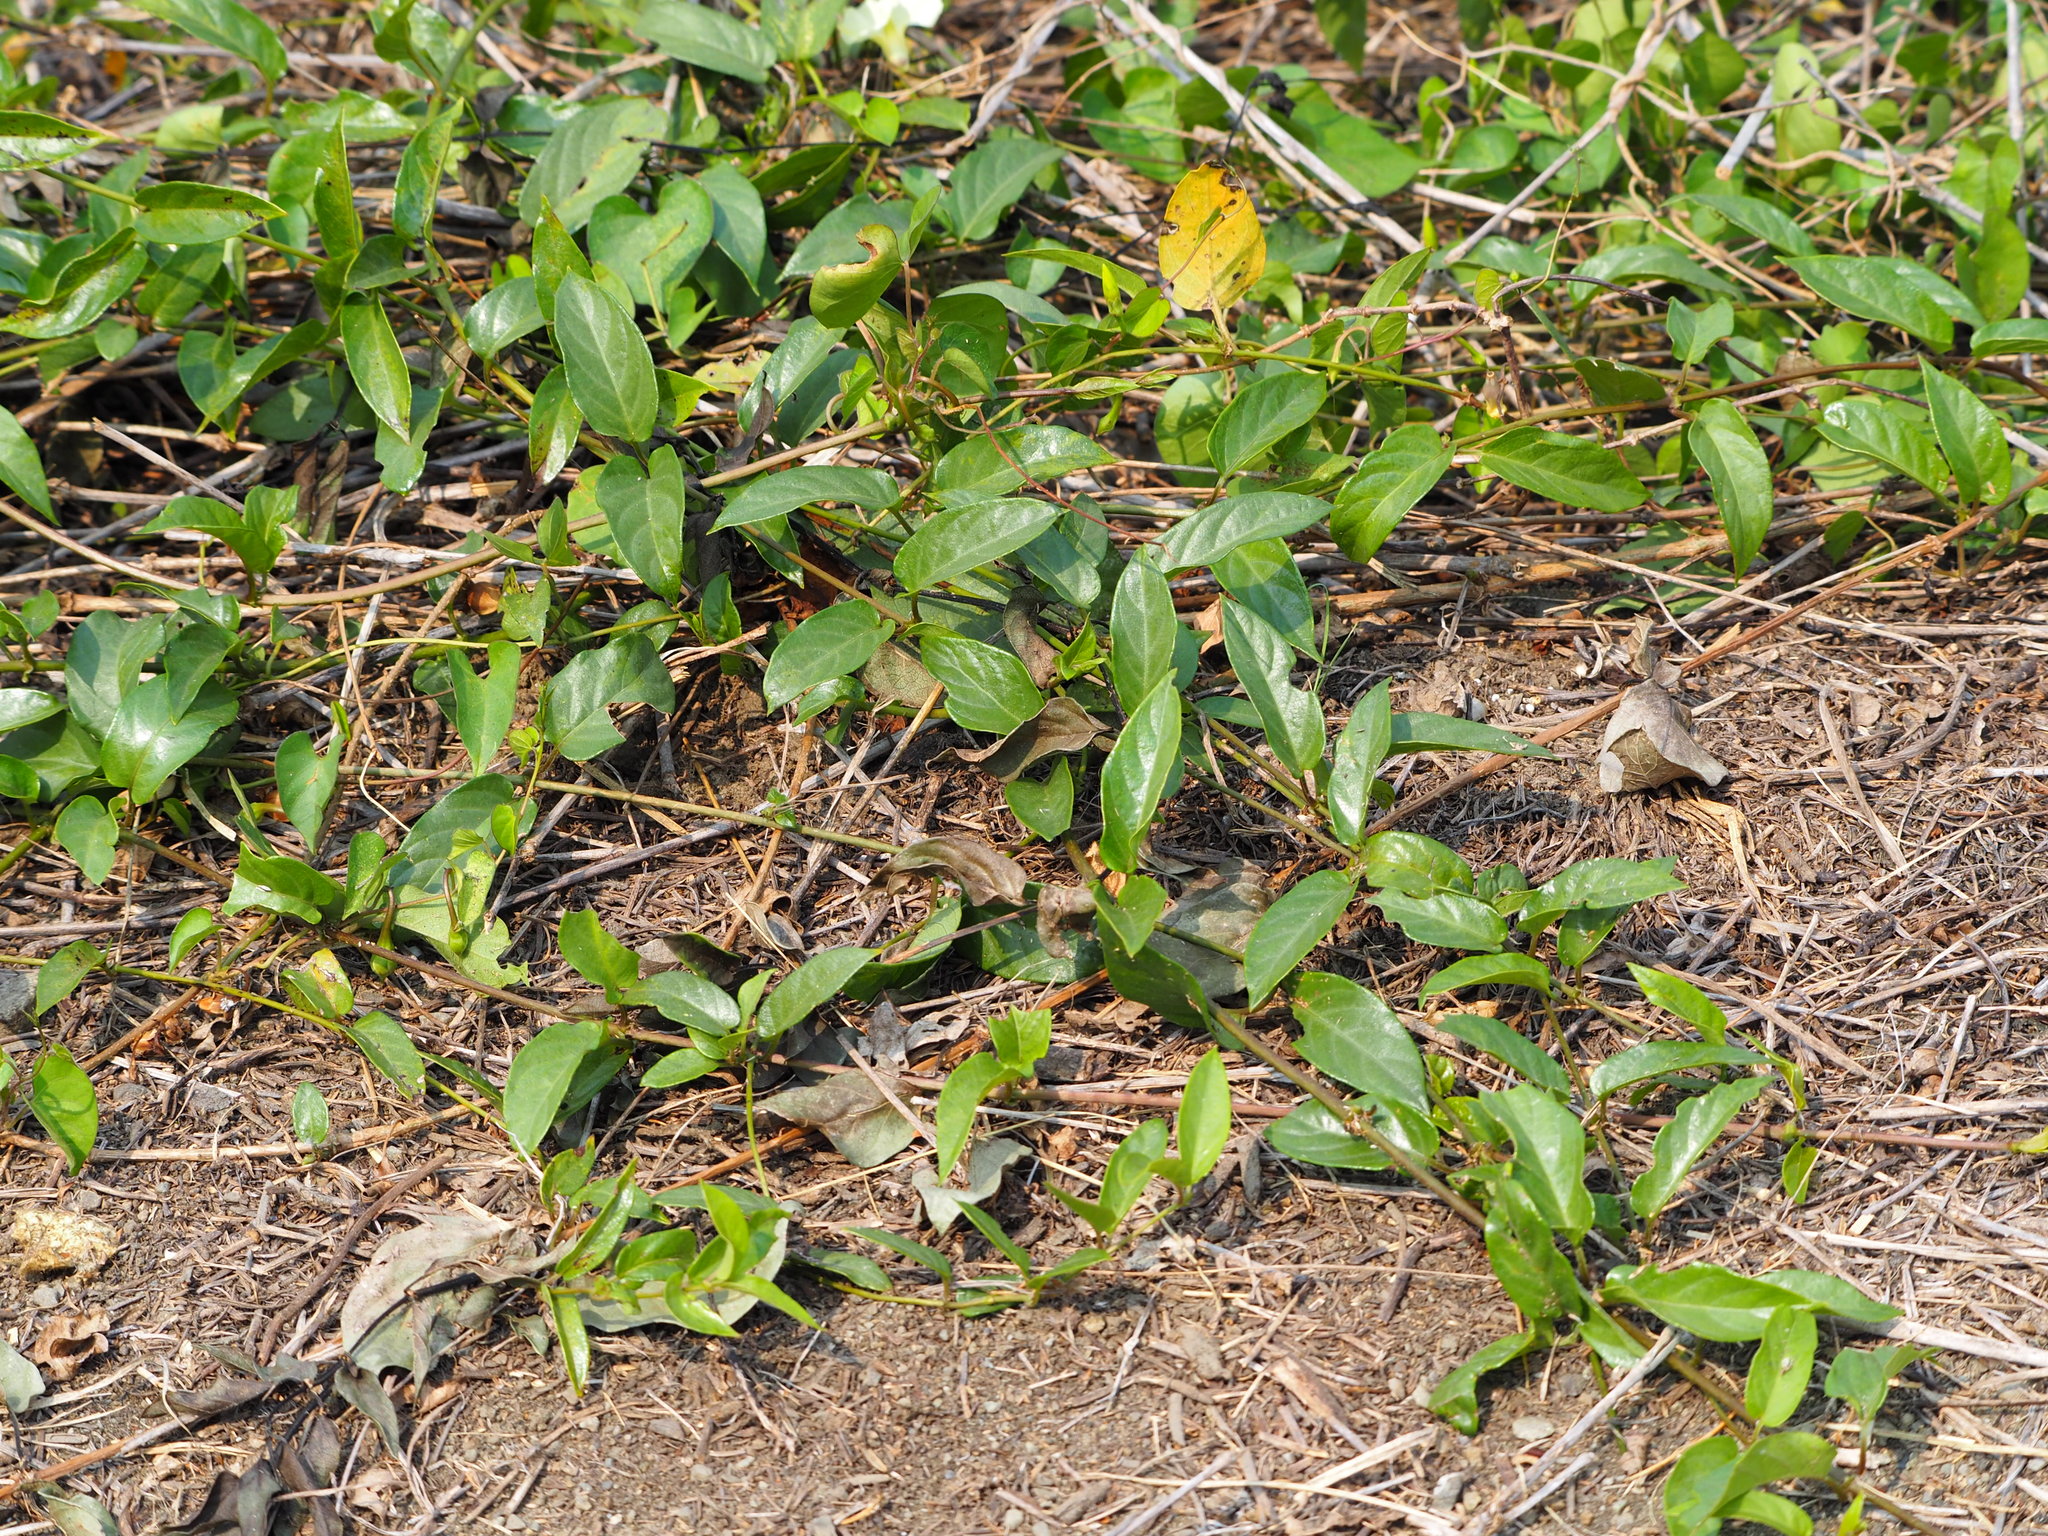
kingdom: Plantae
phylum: Tracheophyta
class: Magnoliopsida
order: Gentianales
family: Rubiaceae
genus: Paederia
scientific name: Paederia foetida
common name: Stinkvine
